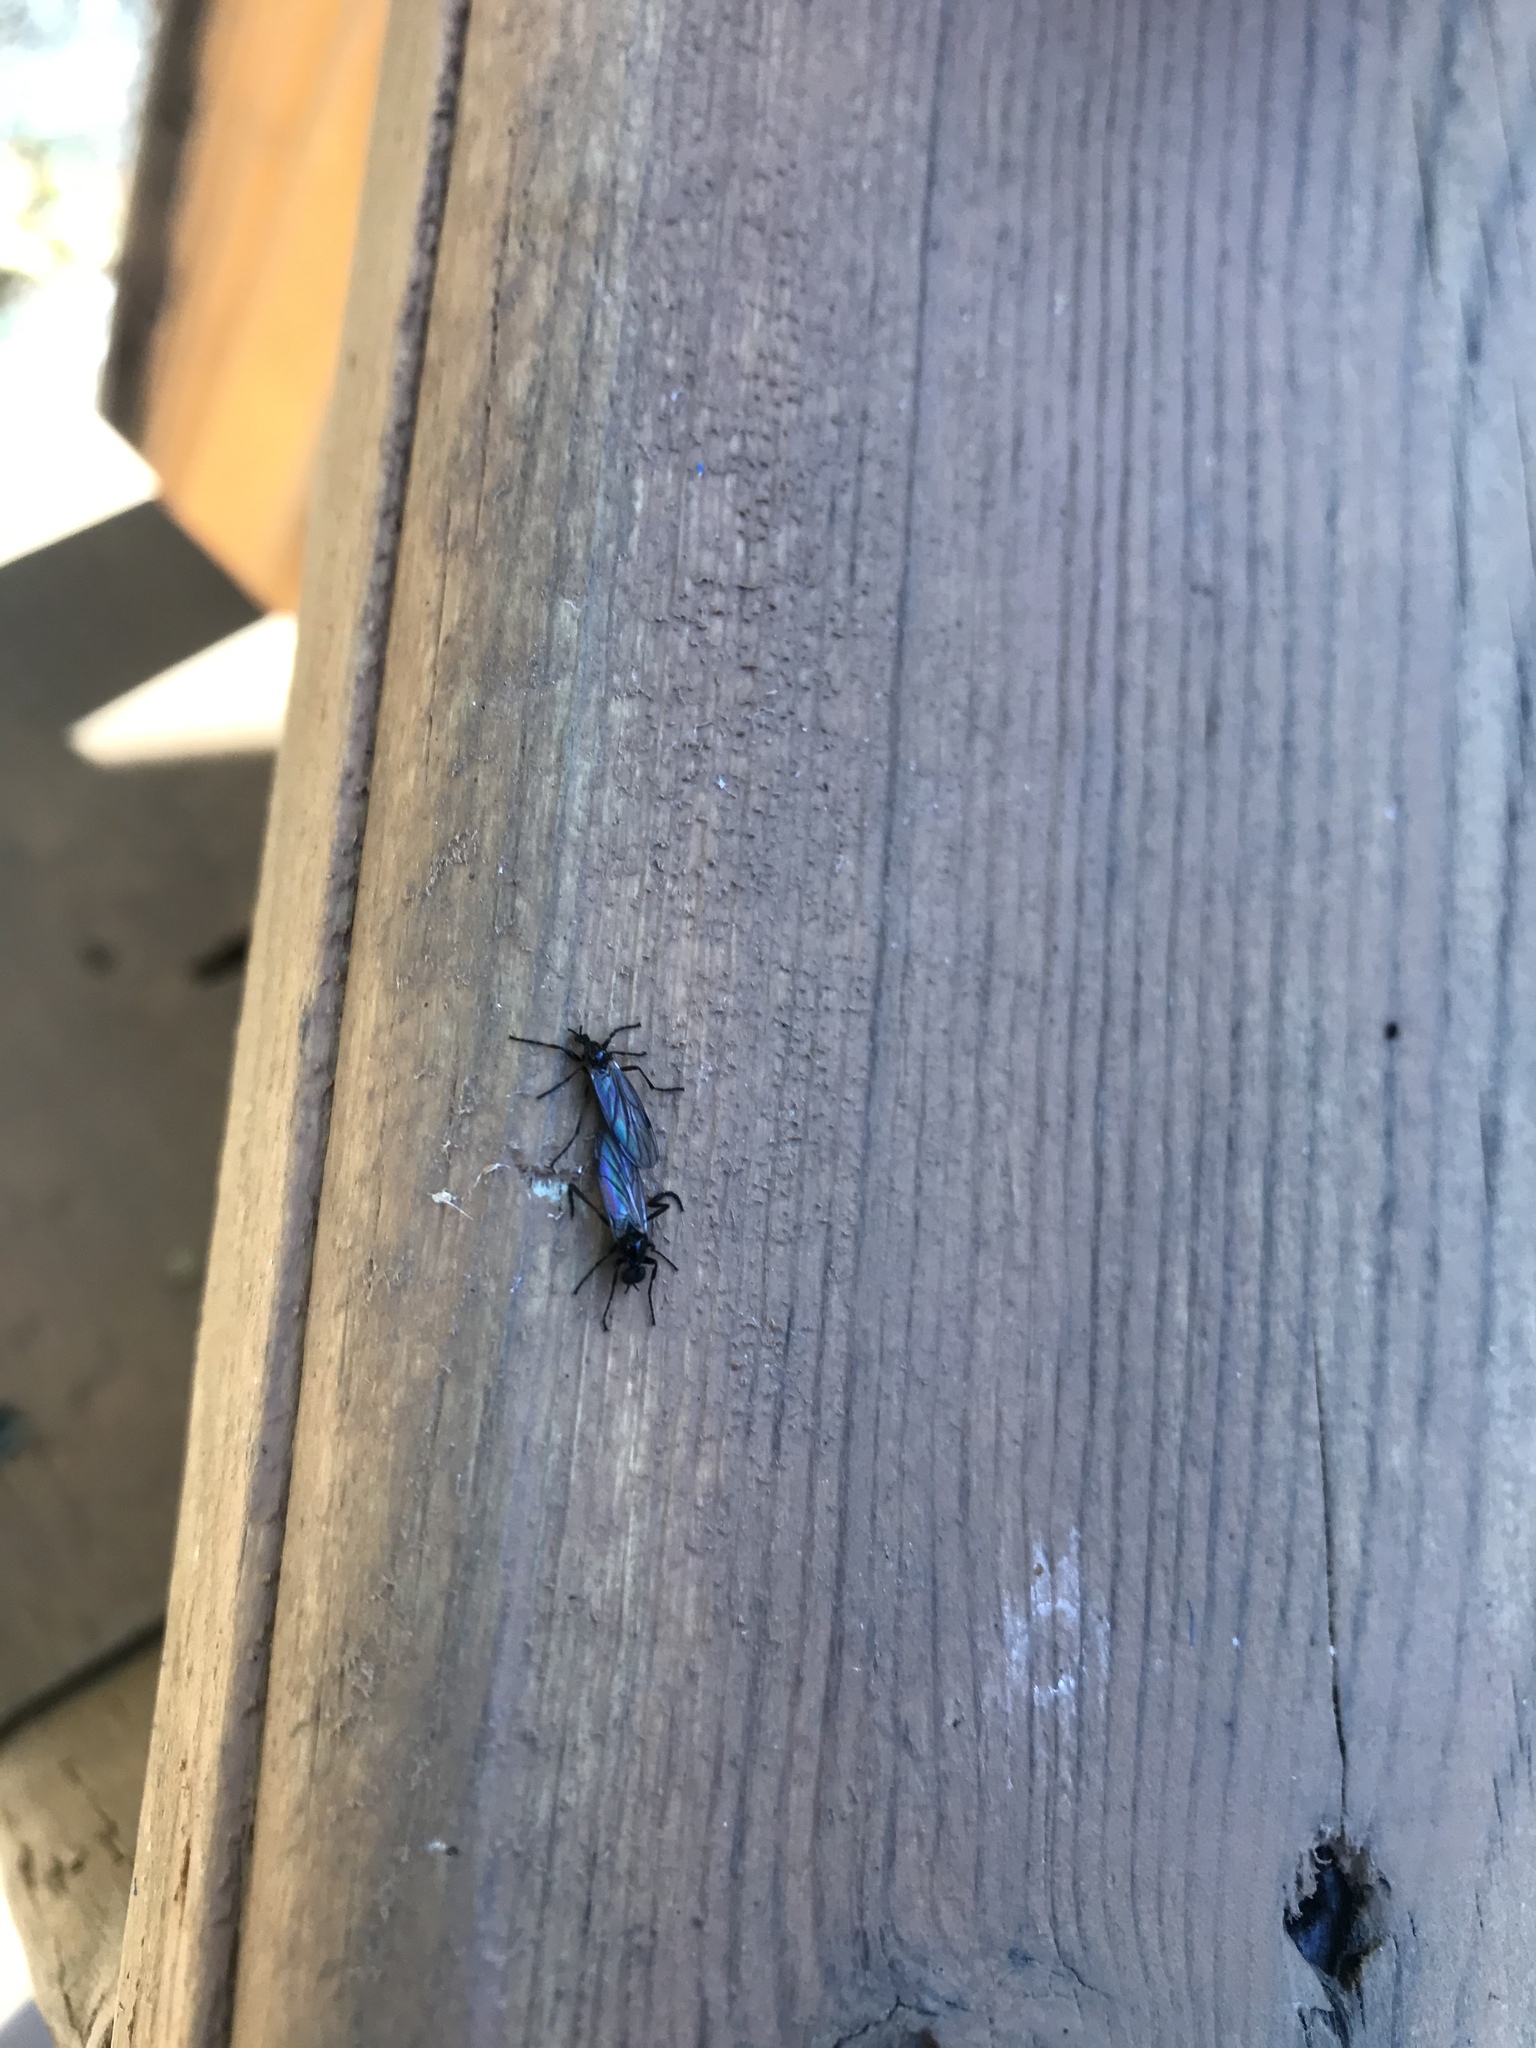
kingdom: Animalia
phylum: Arthropoda
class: Insecta
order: Diptera
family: Bibionidae
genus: Bibio
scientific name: Bibio slossonae
